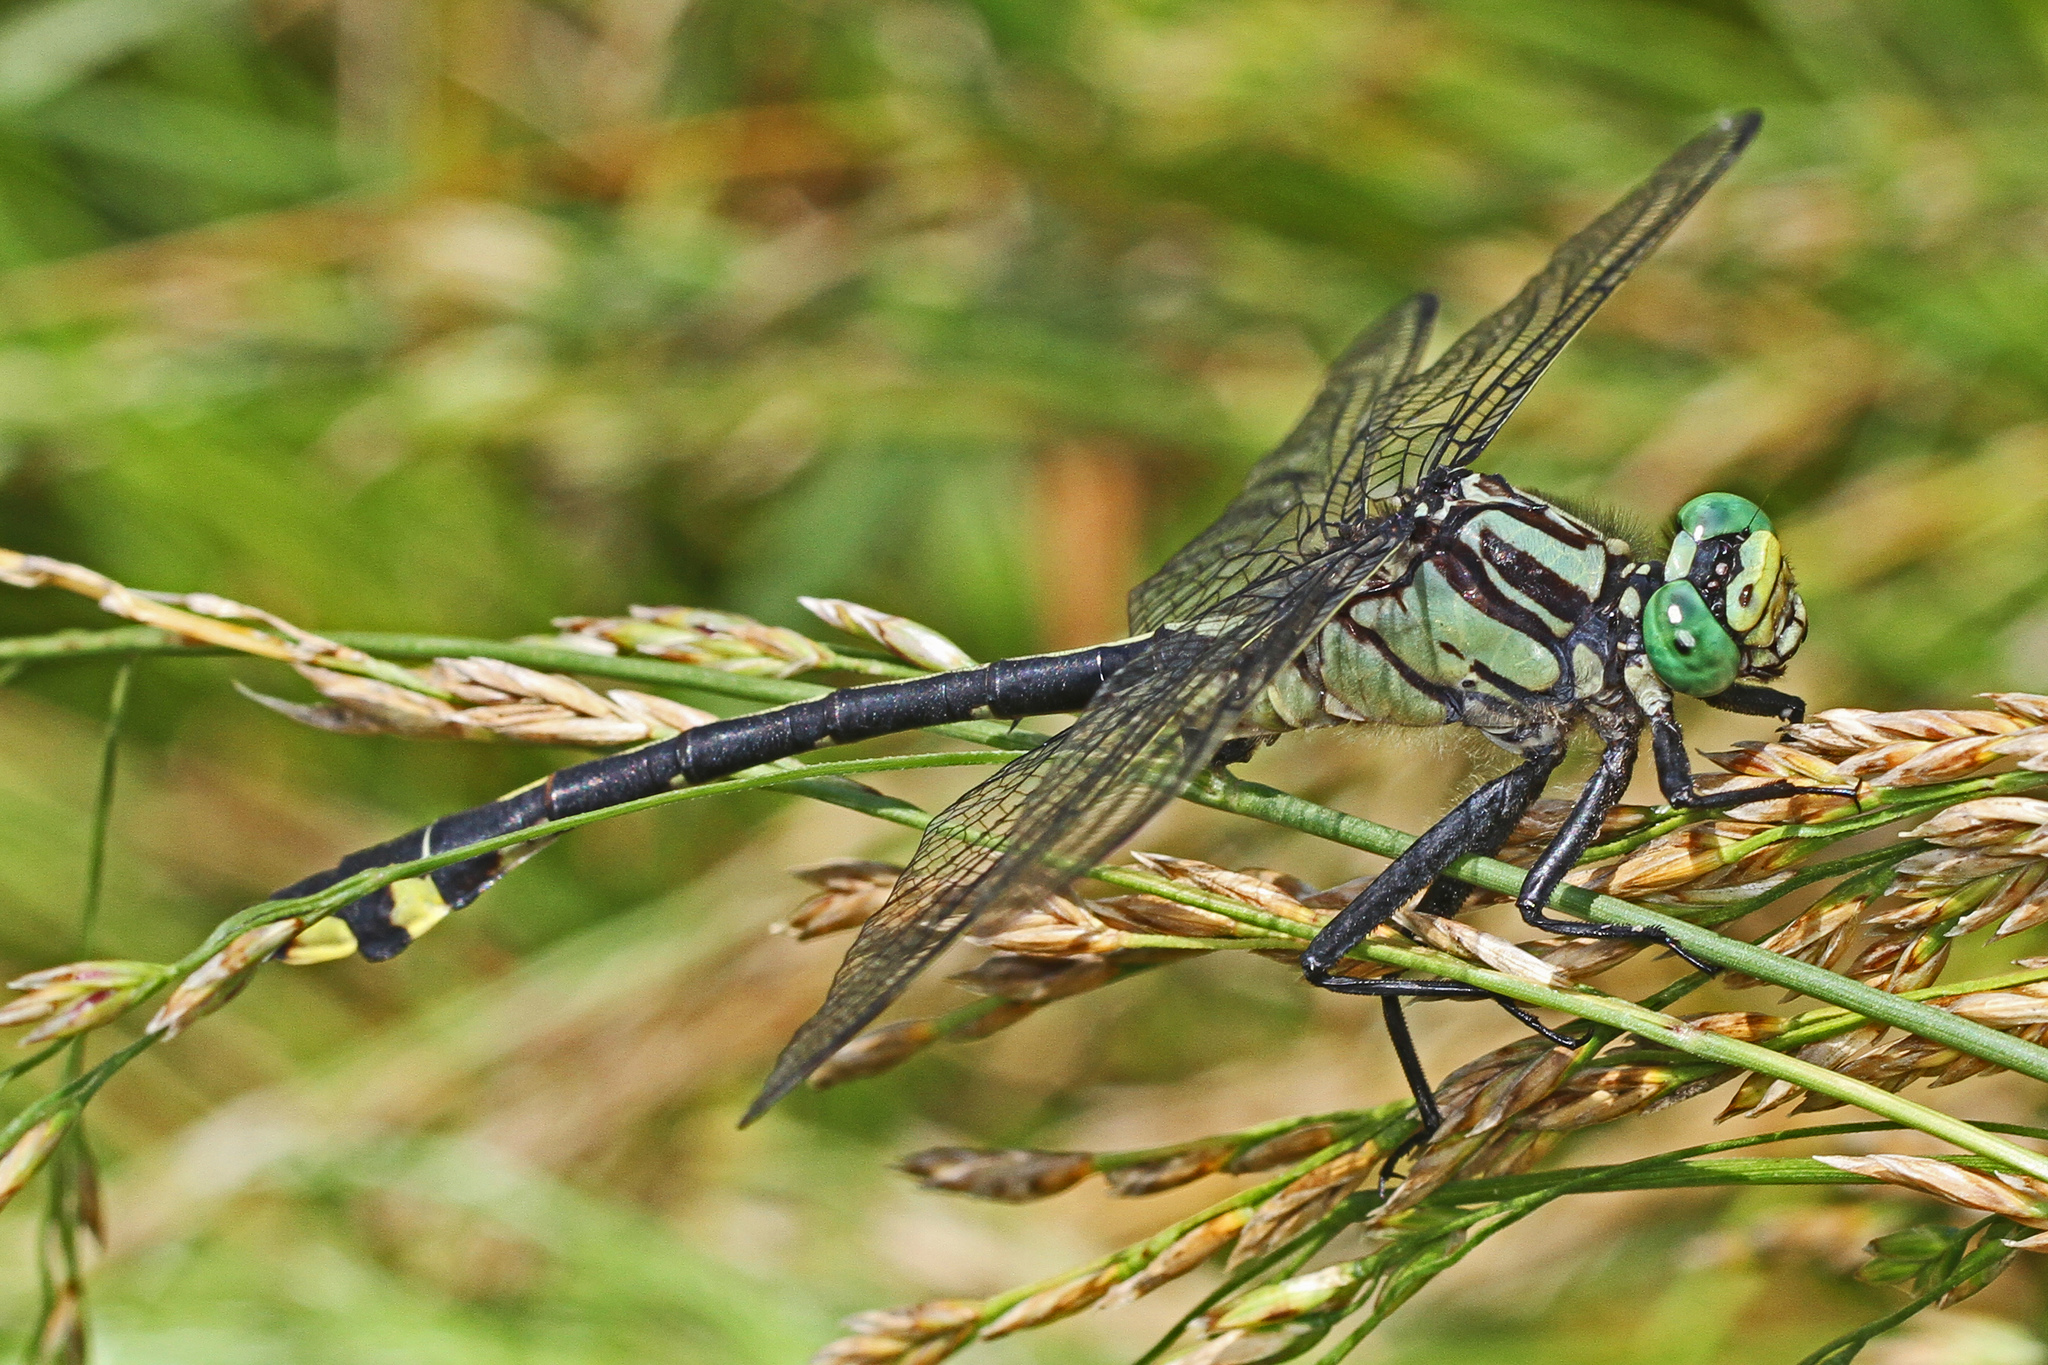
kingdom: Animalia
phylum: Arthropoda
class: Insecta
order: Odonata
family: Gomphidae
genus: Gomphurus
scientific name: Gomphurus lineatifrons
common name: Splendid clubtail
